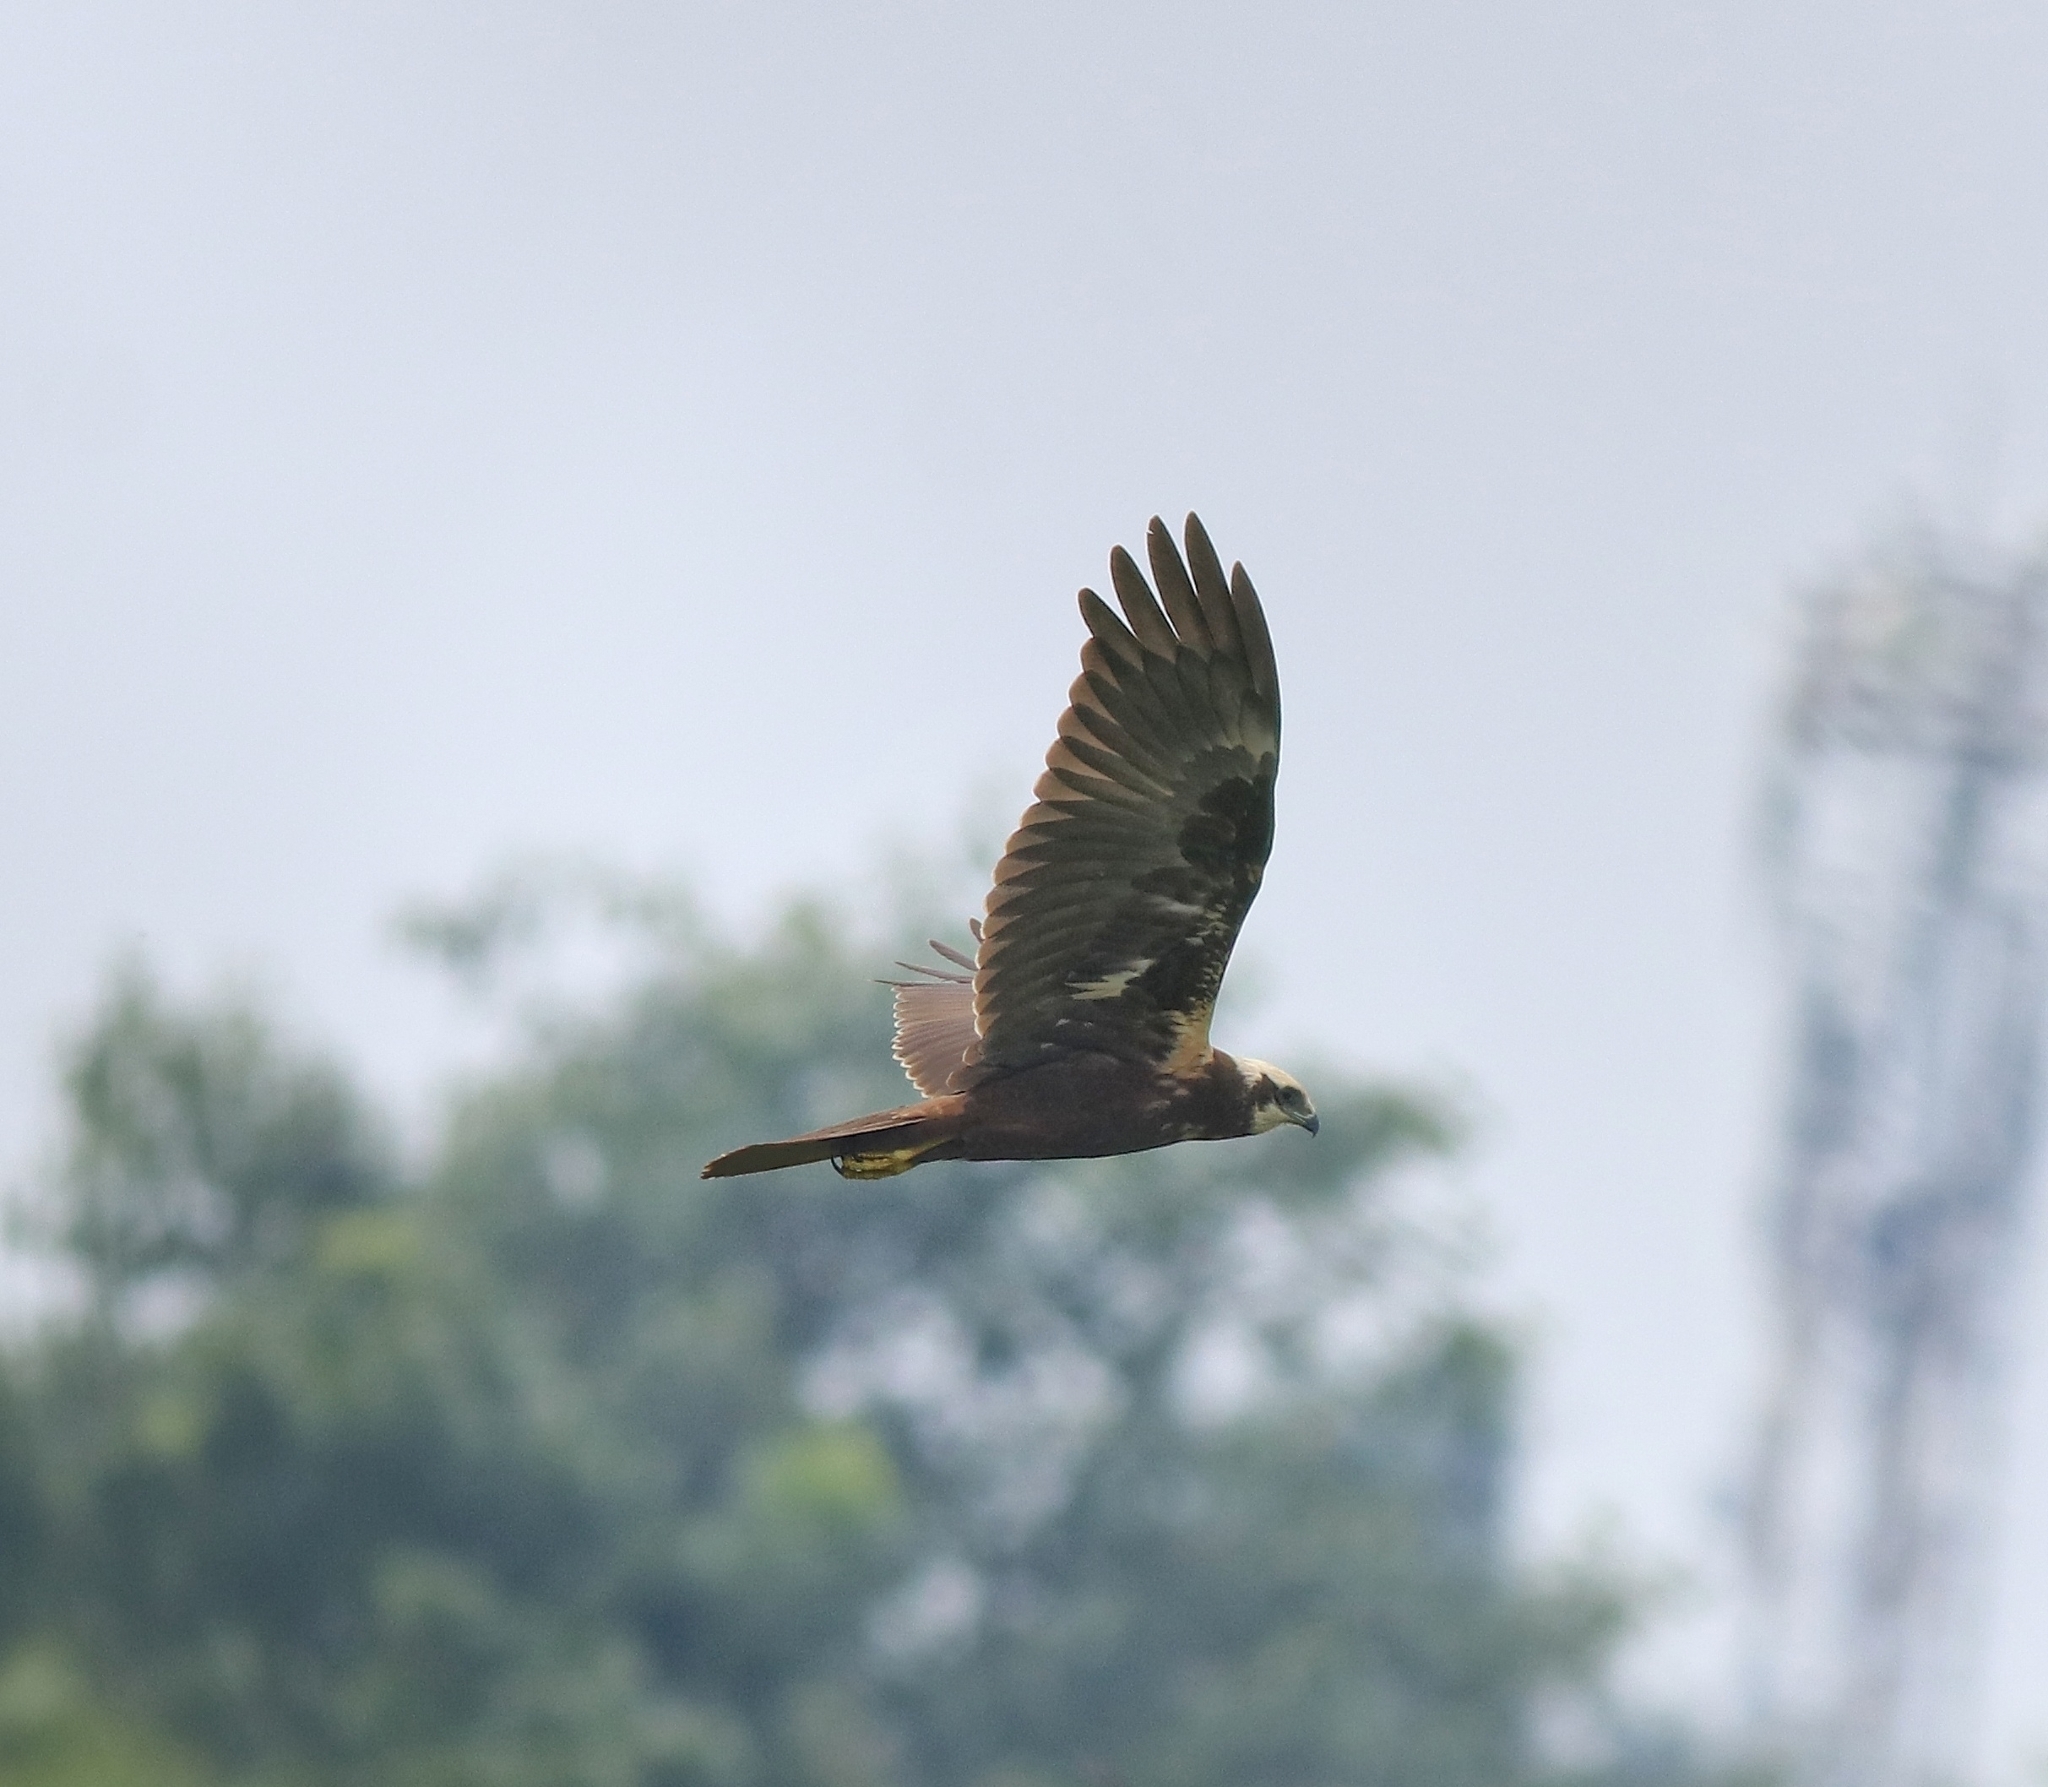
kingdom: Animalia
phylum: Chordata
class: Aves
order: Accipitriformes
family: Accipitridae
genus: Circus
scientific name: Circus aeruginosus
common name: Western marsh harrier
